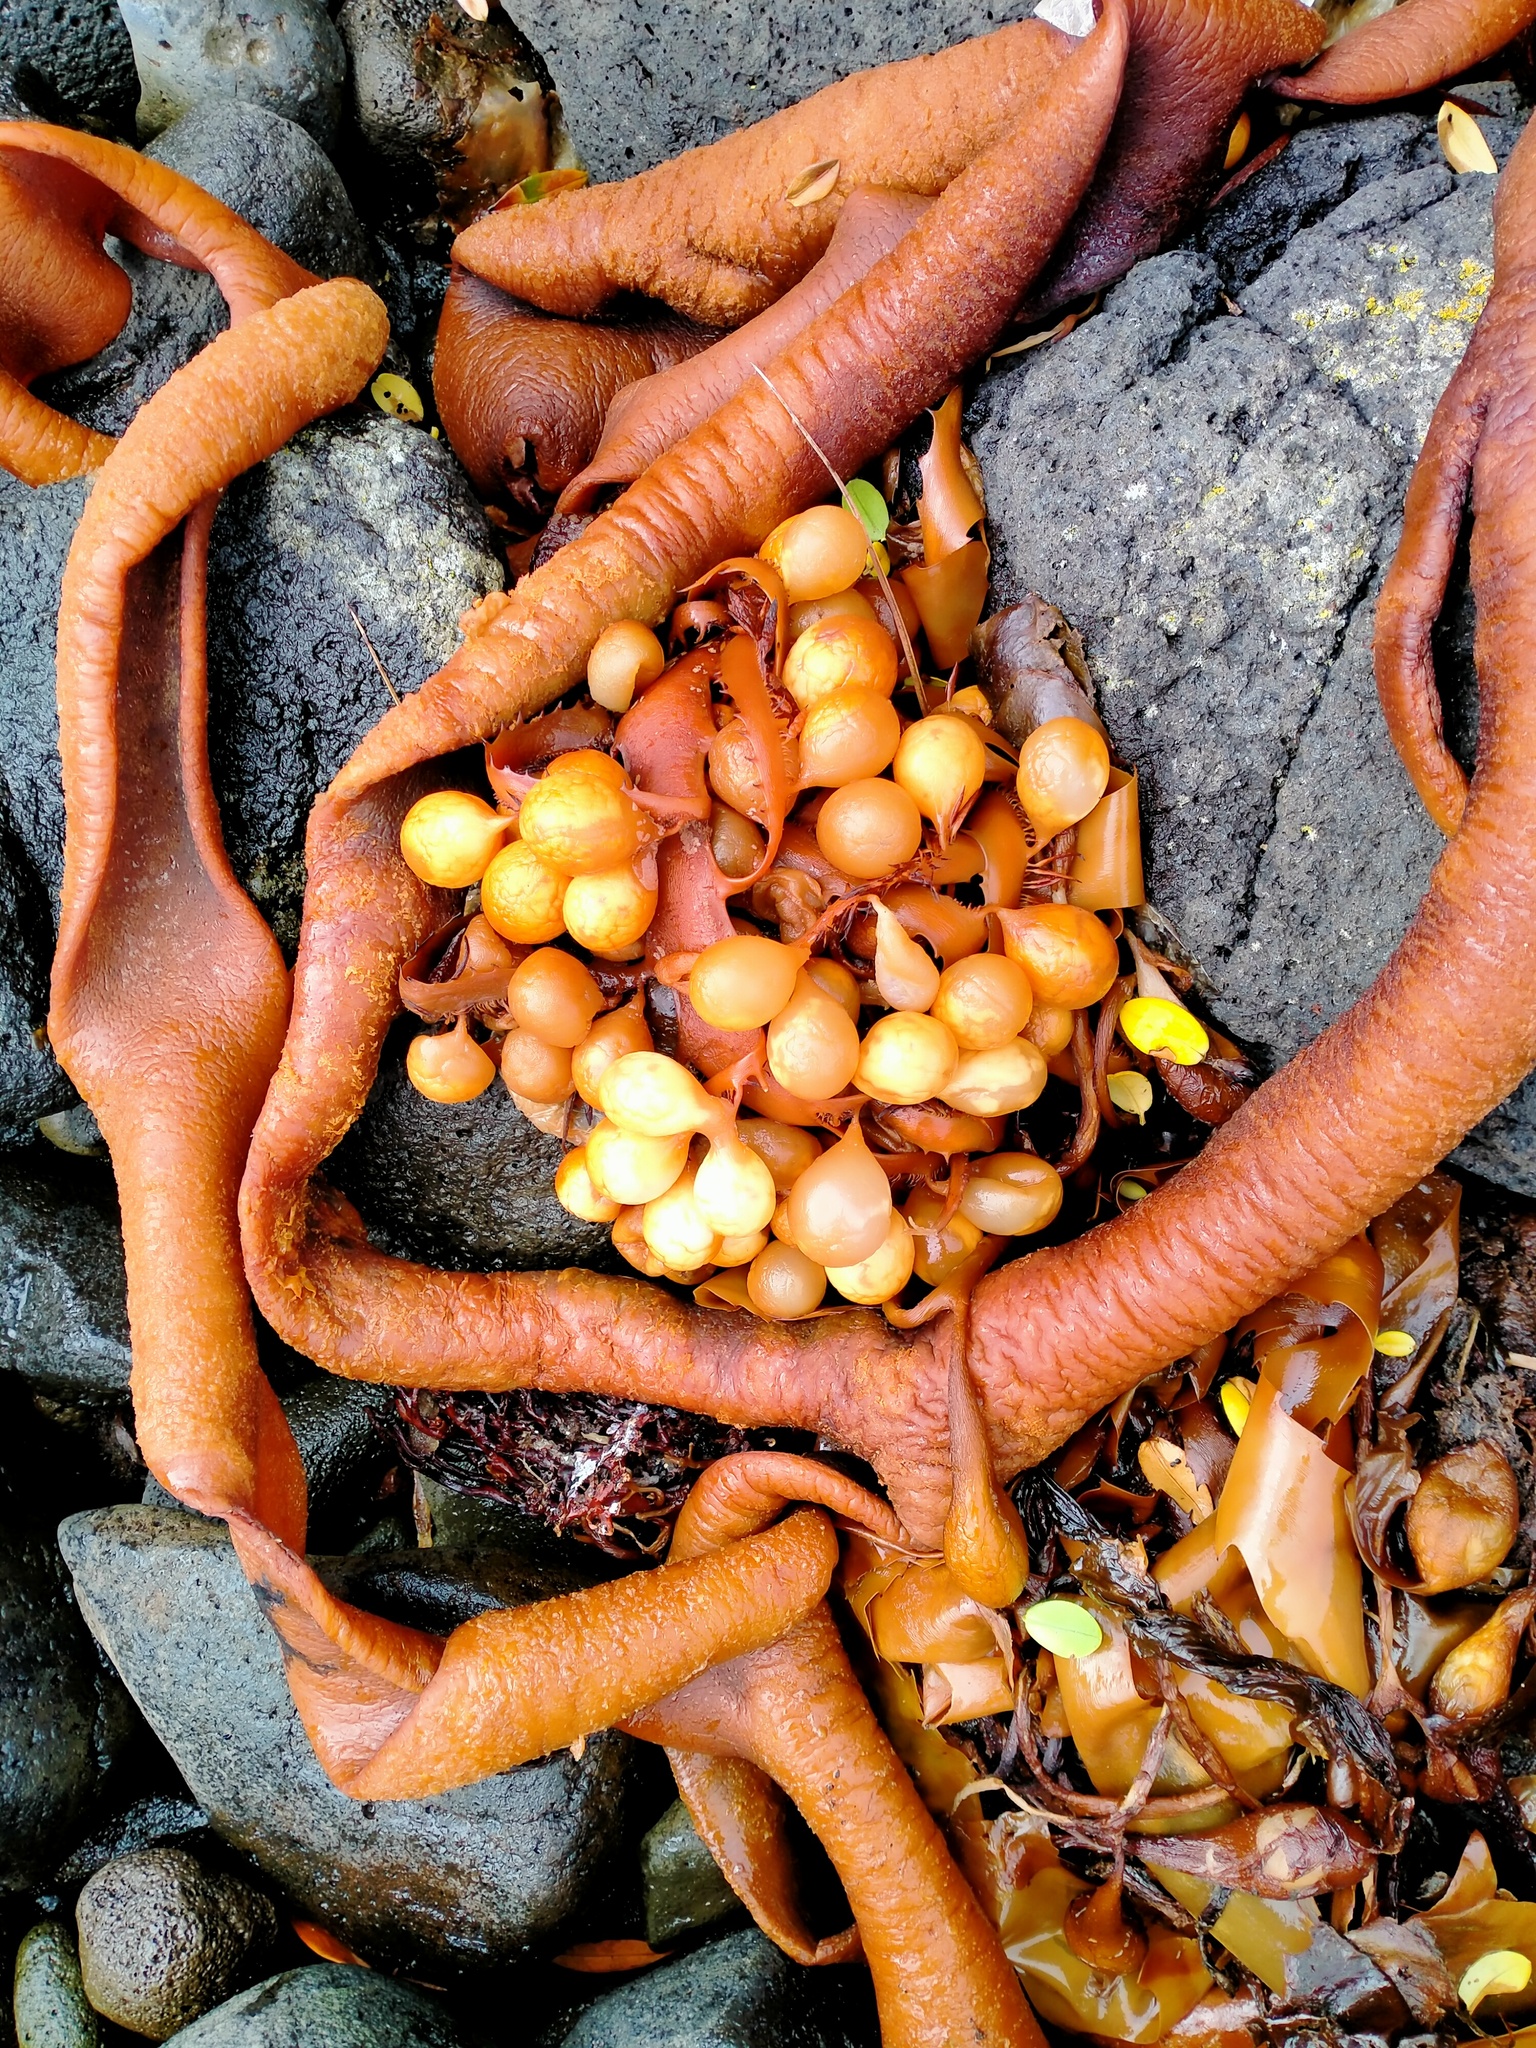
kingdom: Chromista
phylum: Ochrophyta
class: Phaeophyceae
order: Fucales
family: Seirococcaceae
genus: Marginariella
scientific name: Marginariella urvilliana
